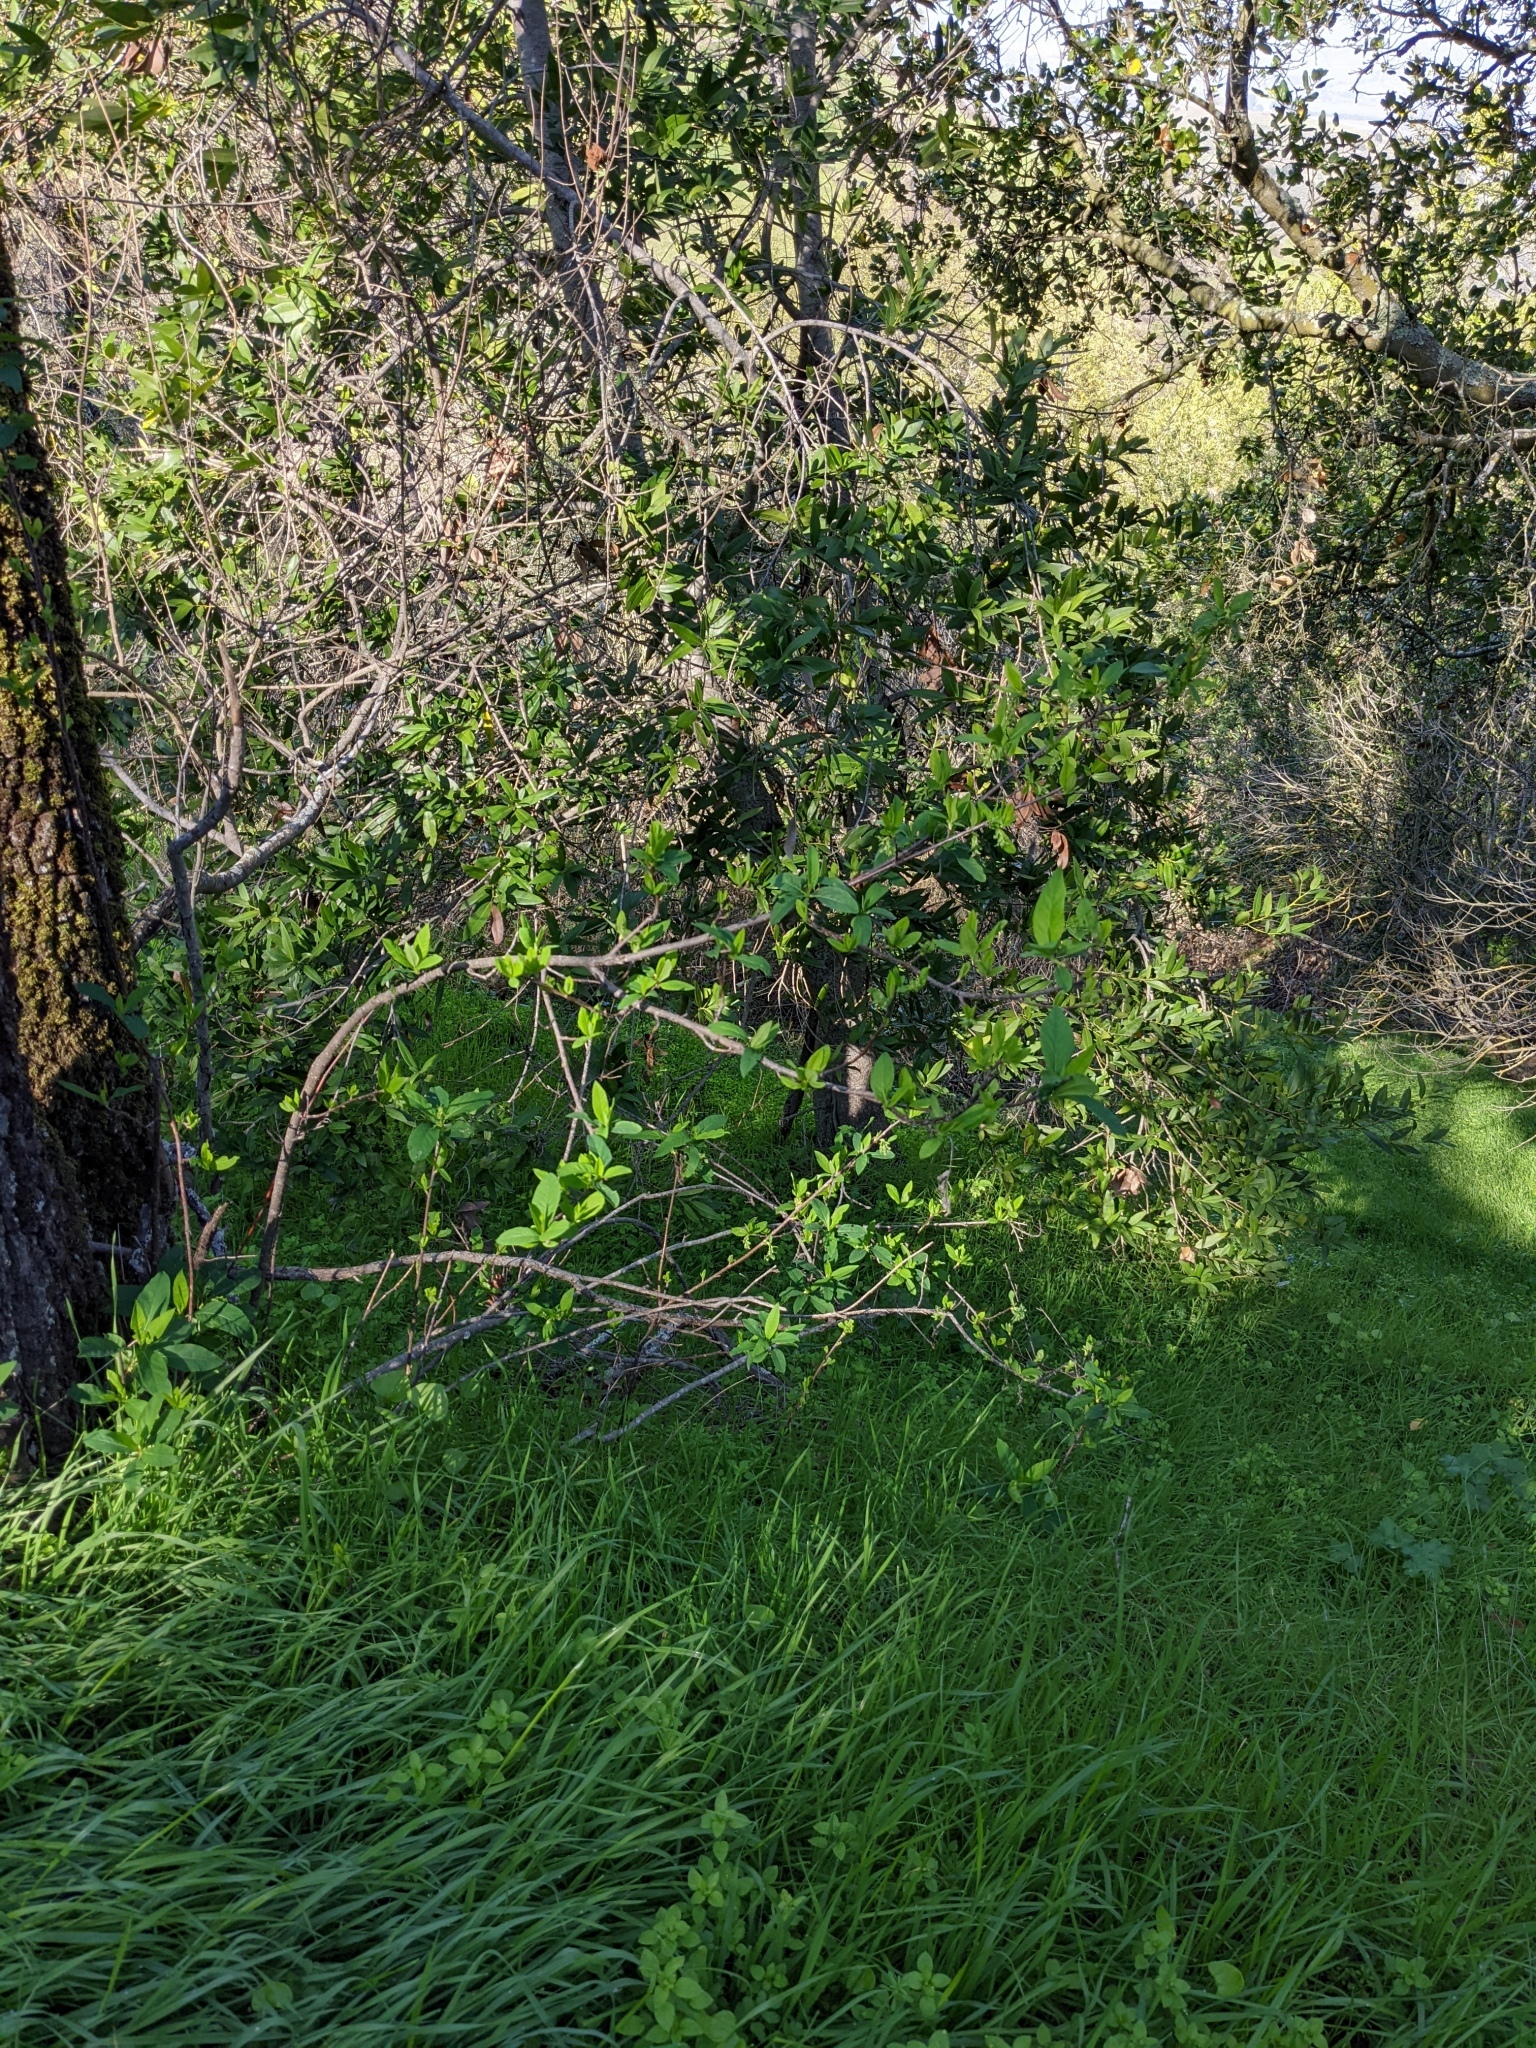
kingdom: Plantae
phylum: Tracheophyta
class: Magnoliopsida
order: Rosales
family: Rosaceae
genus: Oemleria
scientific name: Oemleria cerasiformis
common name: Osoberry
